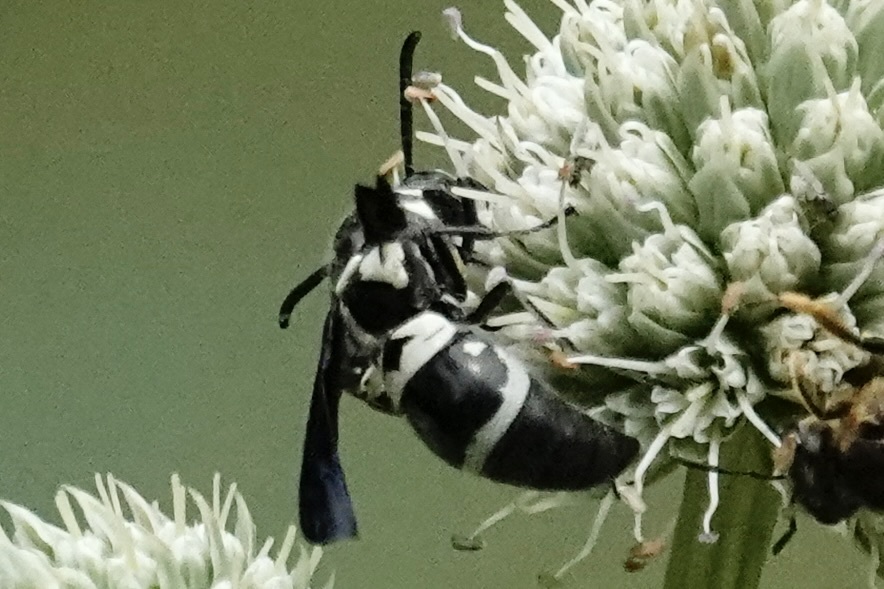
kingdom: Animalia
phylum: Arthropoda
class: Insecta
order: Hymenoptera
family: Eumenidae
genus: Pseudodynerus
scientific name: Pseudodynerus quadrisectus
